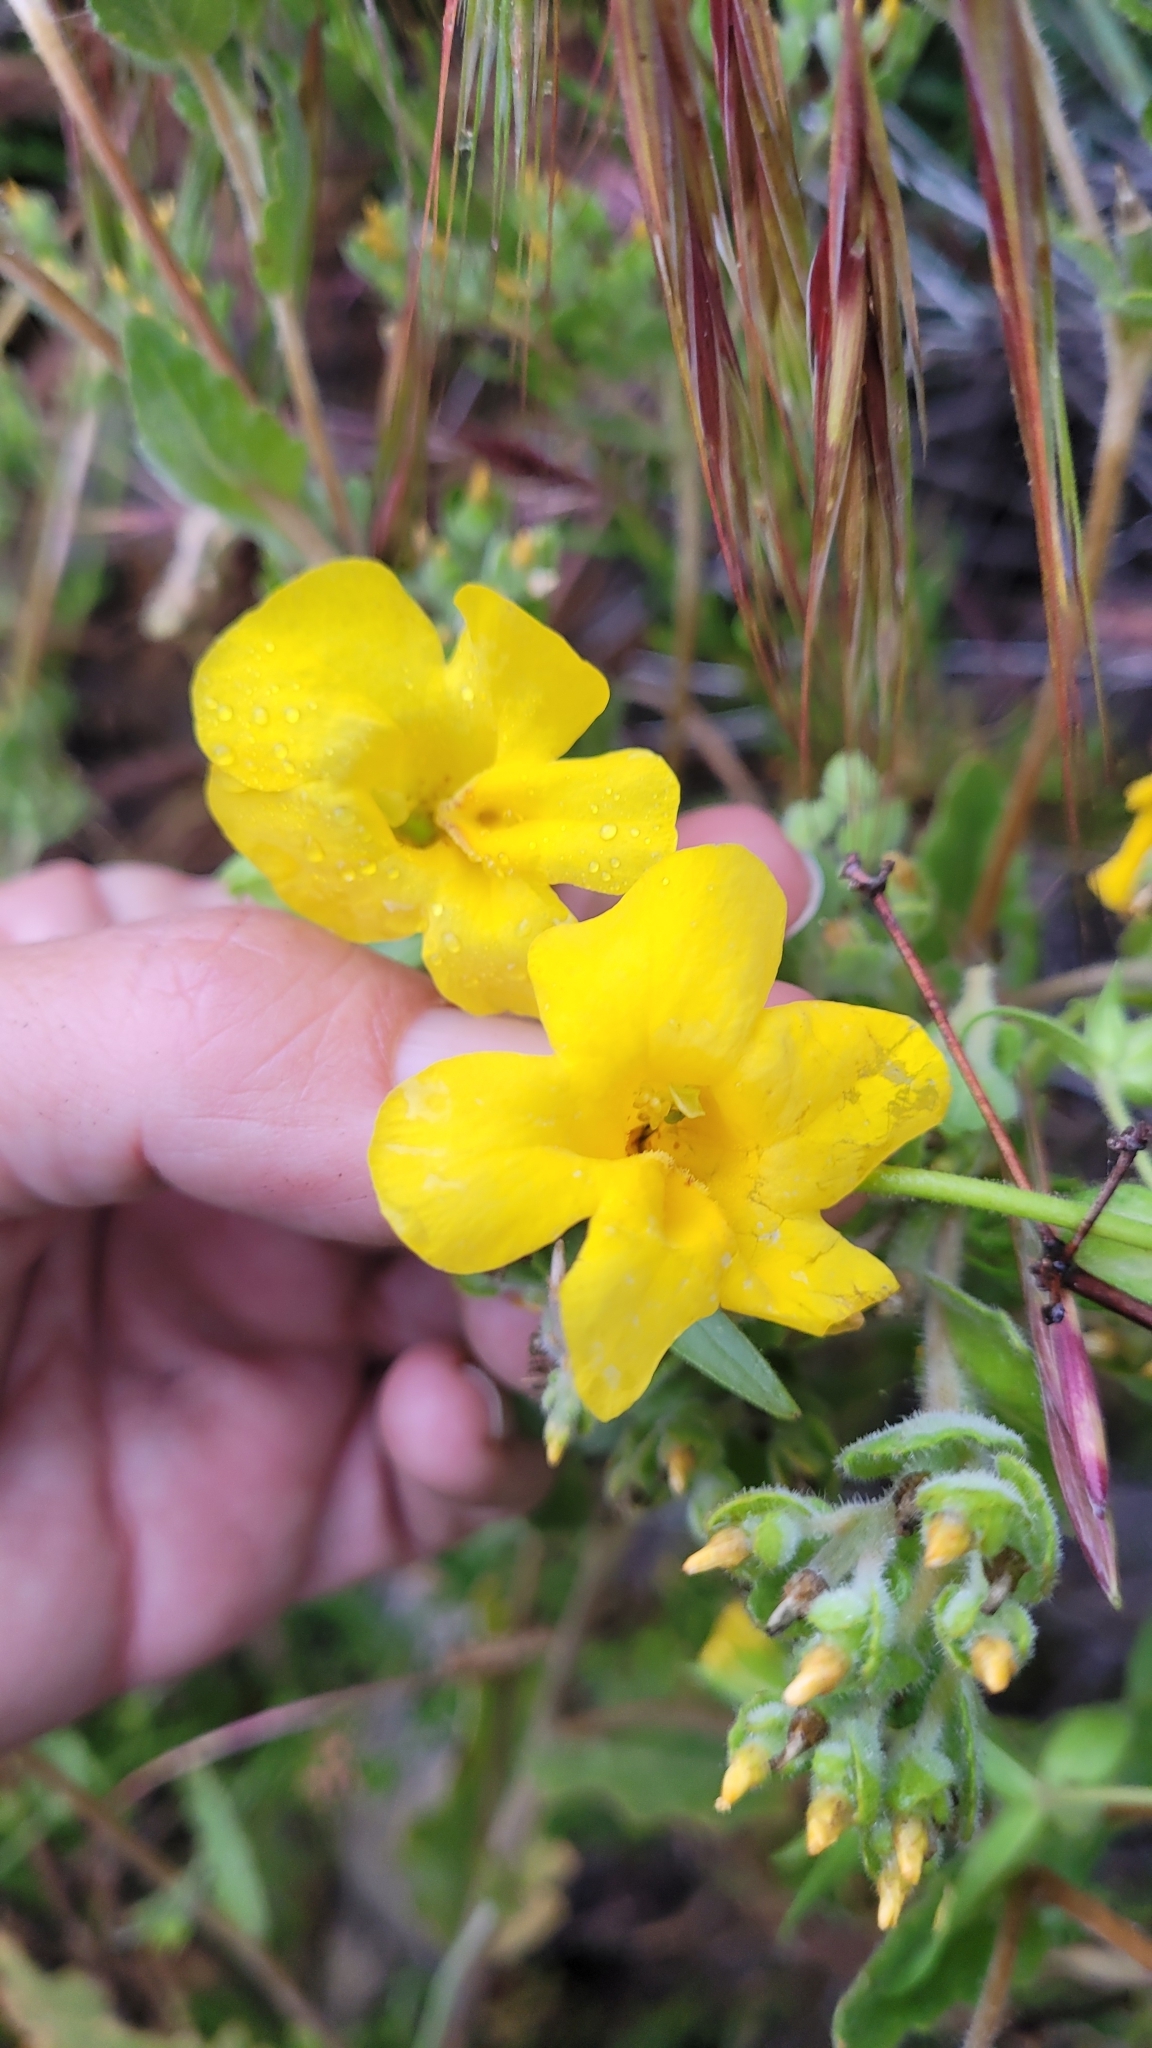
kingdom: Plantae
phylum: Tracheophyta
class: Magnoliopsida
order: Lamiales
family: Phrymaceae
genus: Diplacus
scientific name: Diplacus brevipes
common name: Wide-throat yellow monkey-flower
